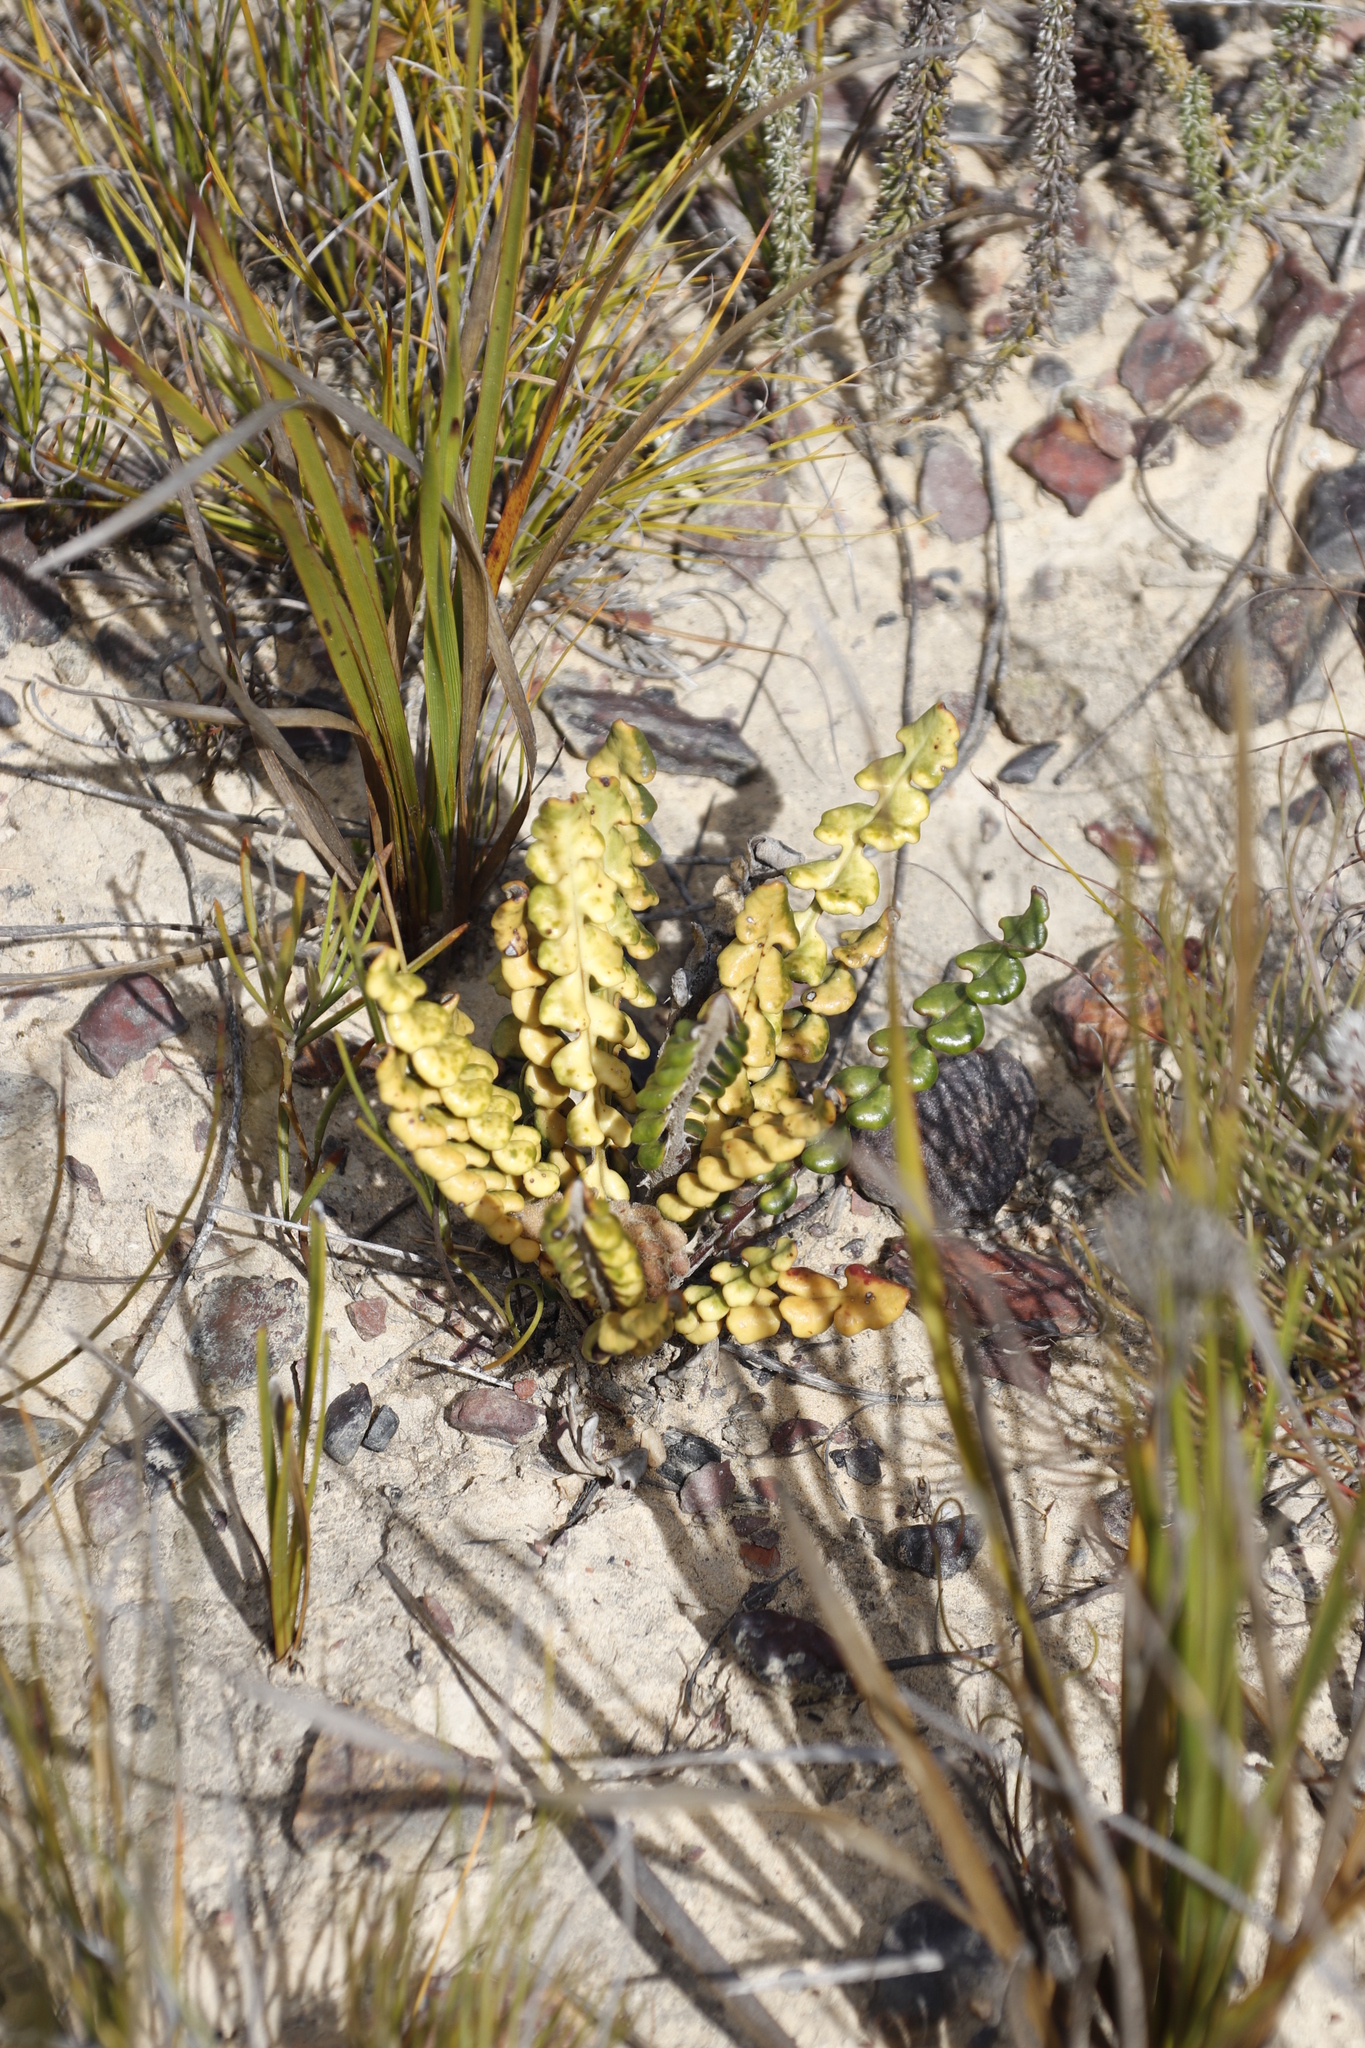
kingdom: Plantae
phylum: Tracheophyta
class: Magnoliopsida
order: Asterales
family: Asteraceae
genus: Gerbera
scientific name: Gerbera linnaei
